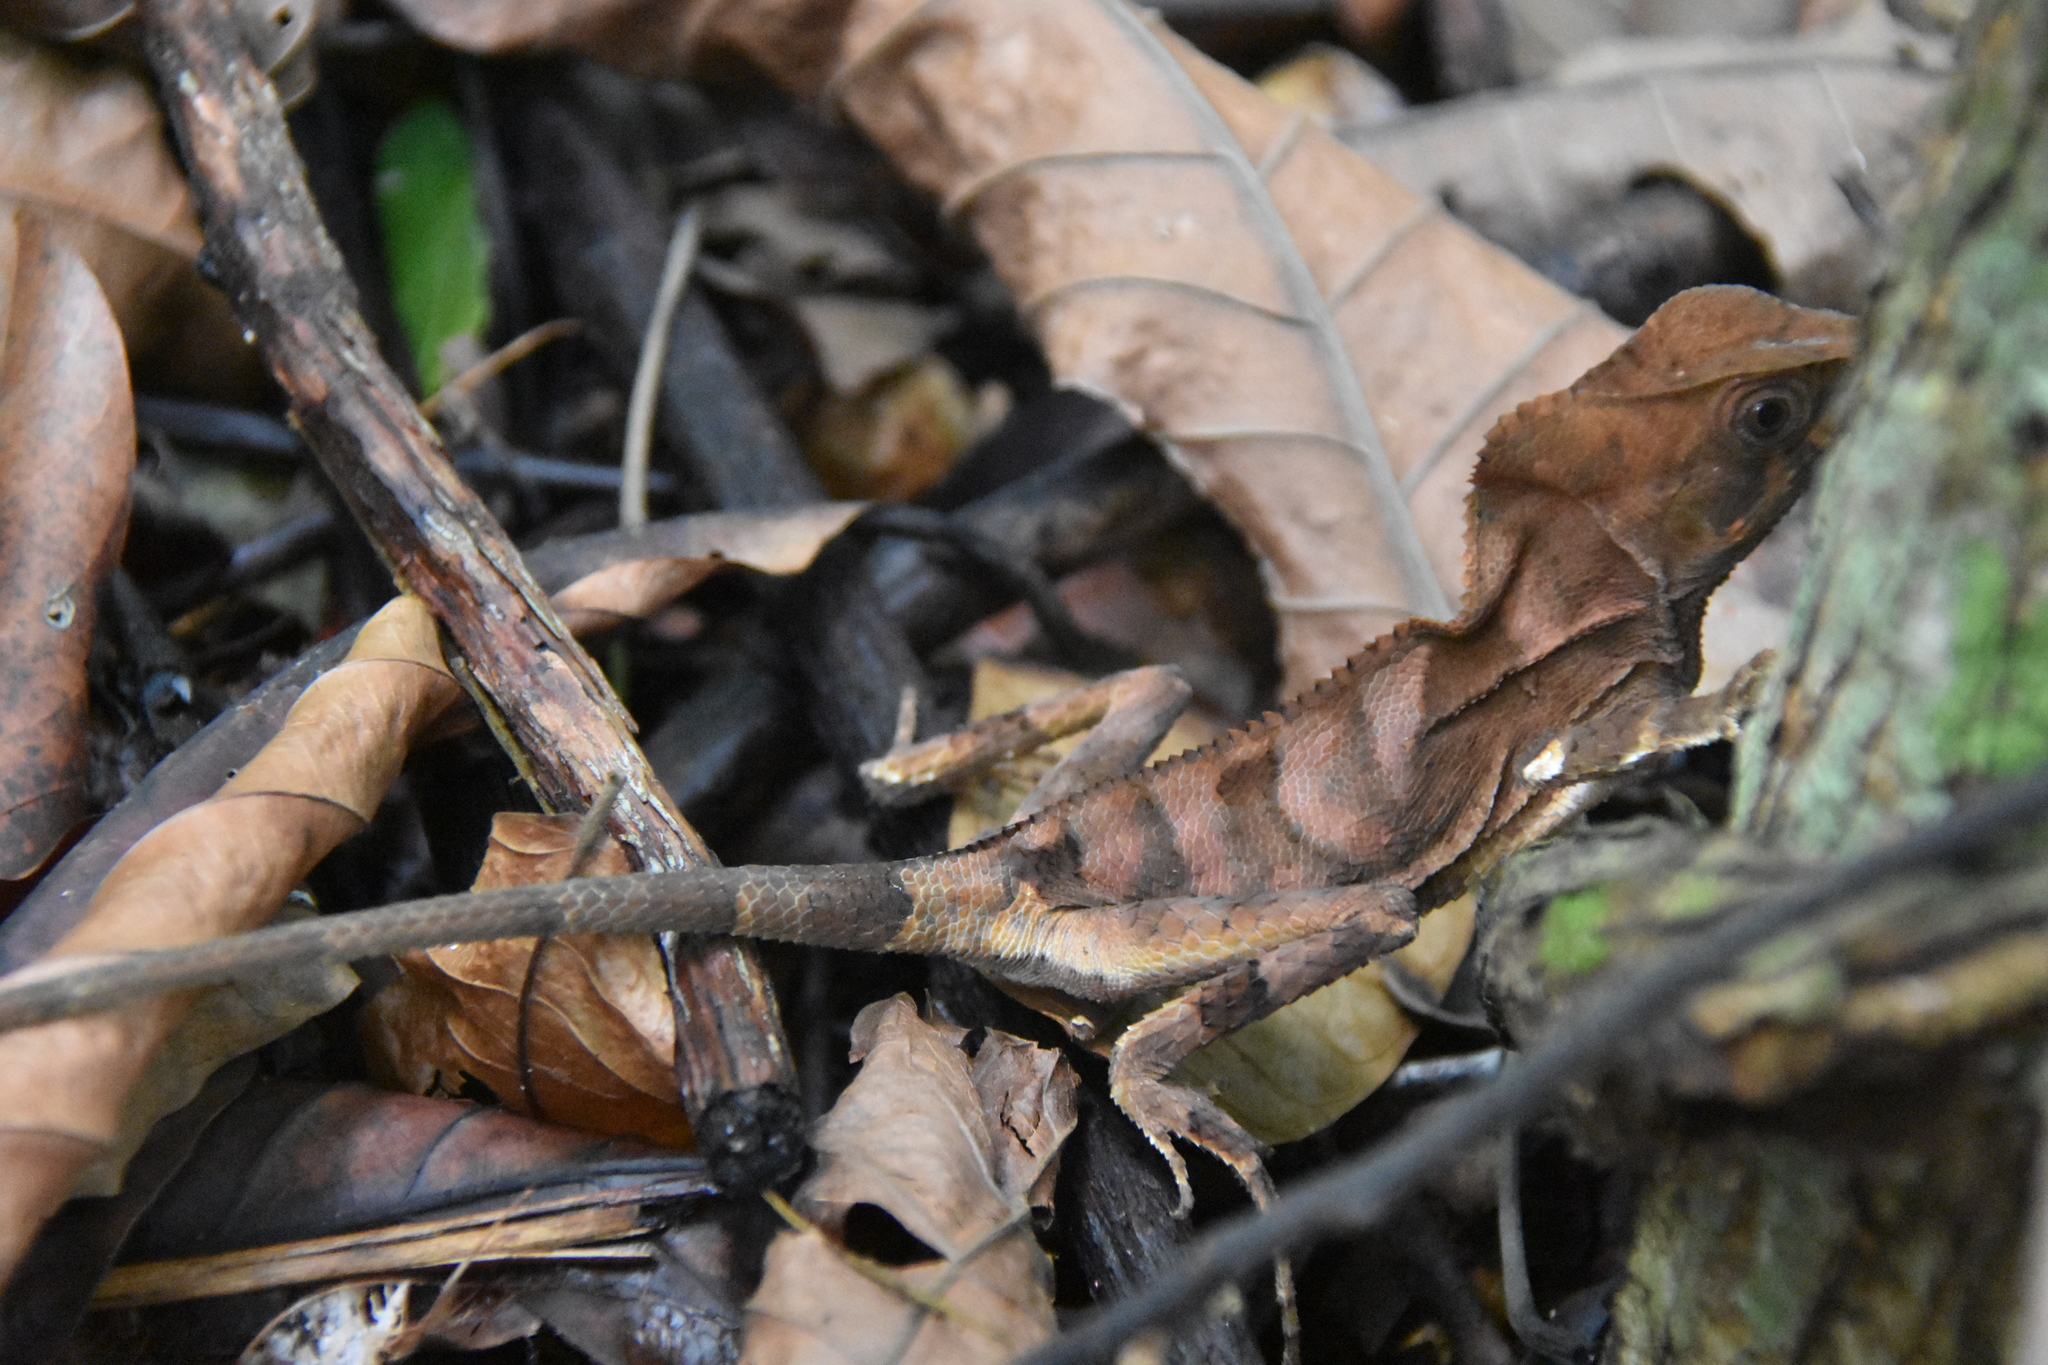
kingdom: Animalia
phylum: Chordata
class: Squamata
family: Corytophanidae
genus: Corytophanes
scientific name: Corytophanes cristatus
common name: Smooth helmeted iguana
